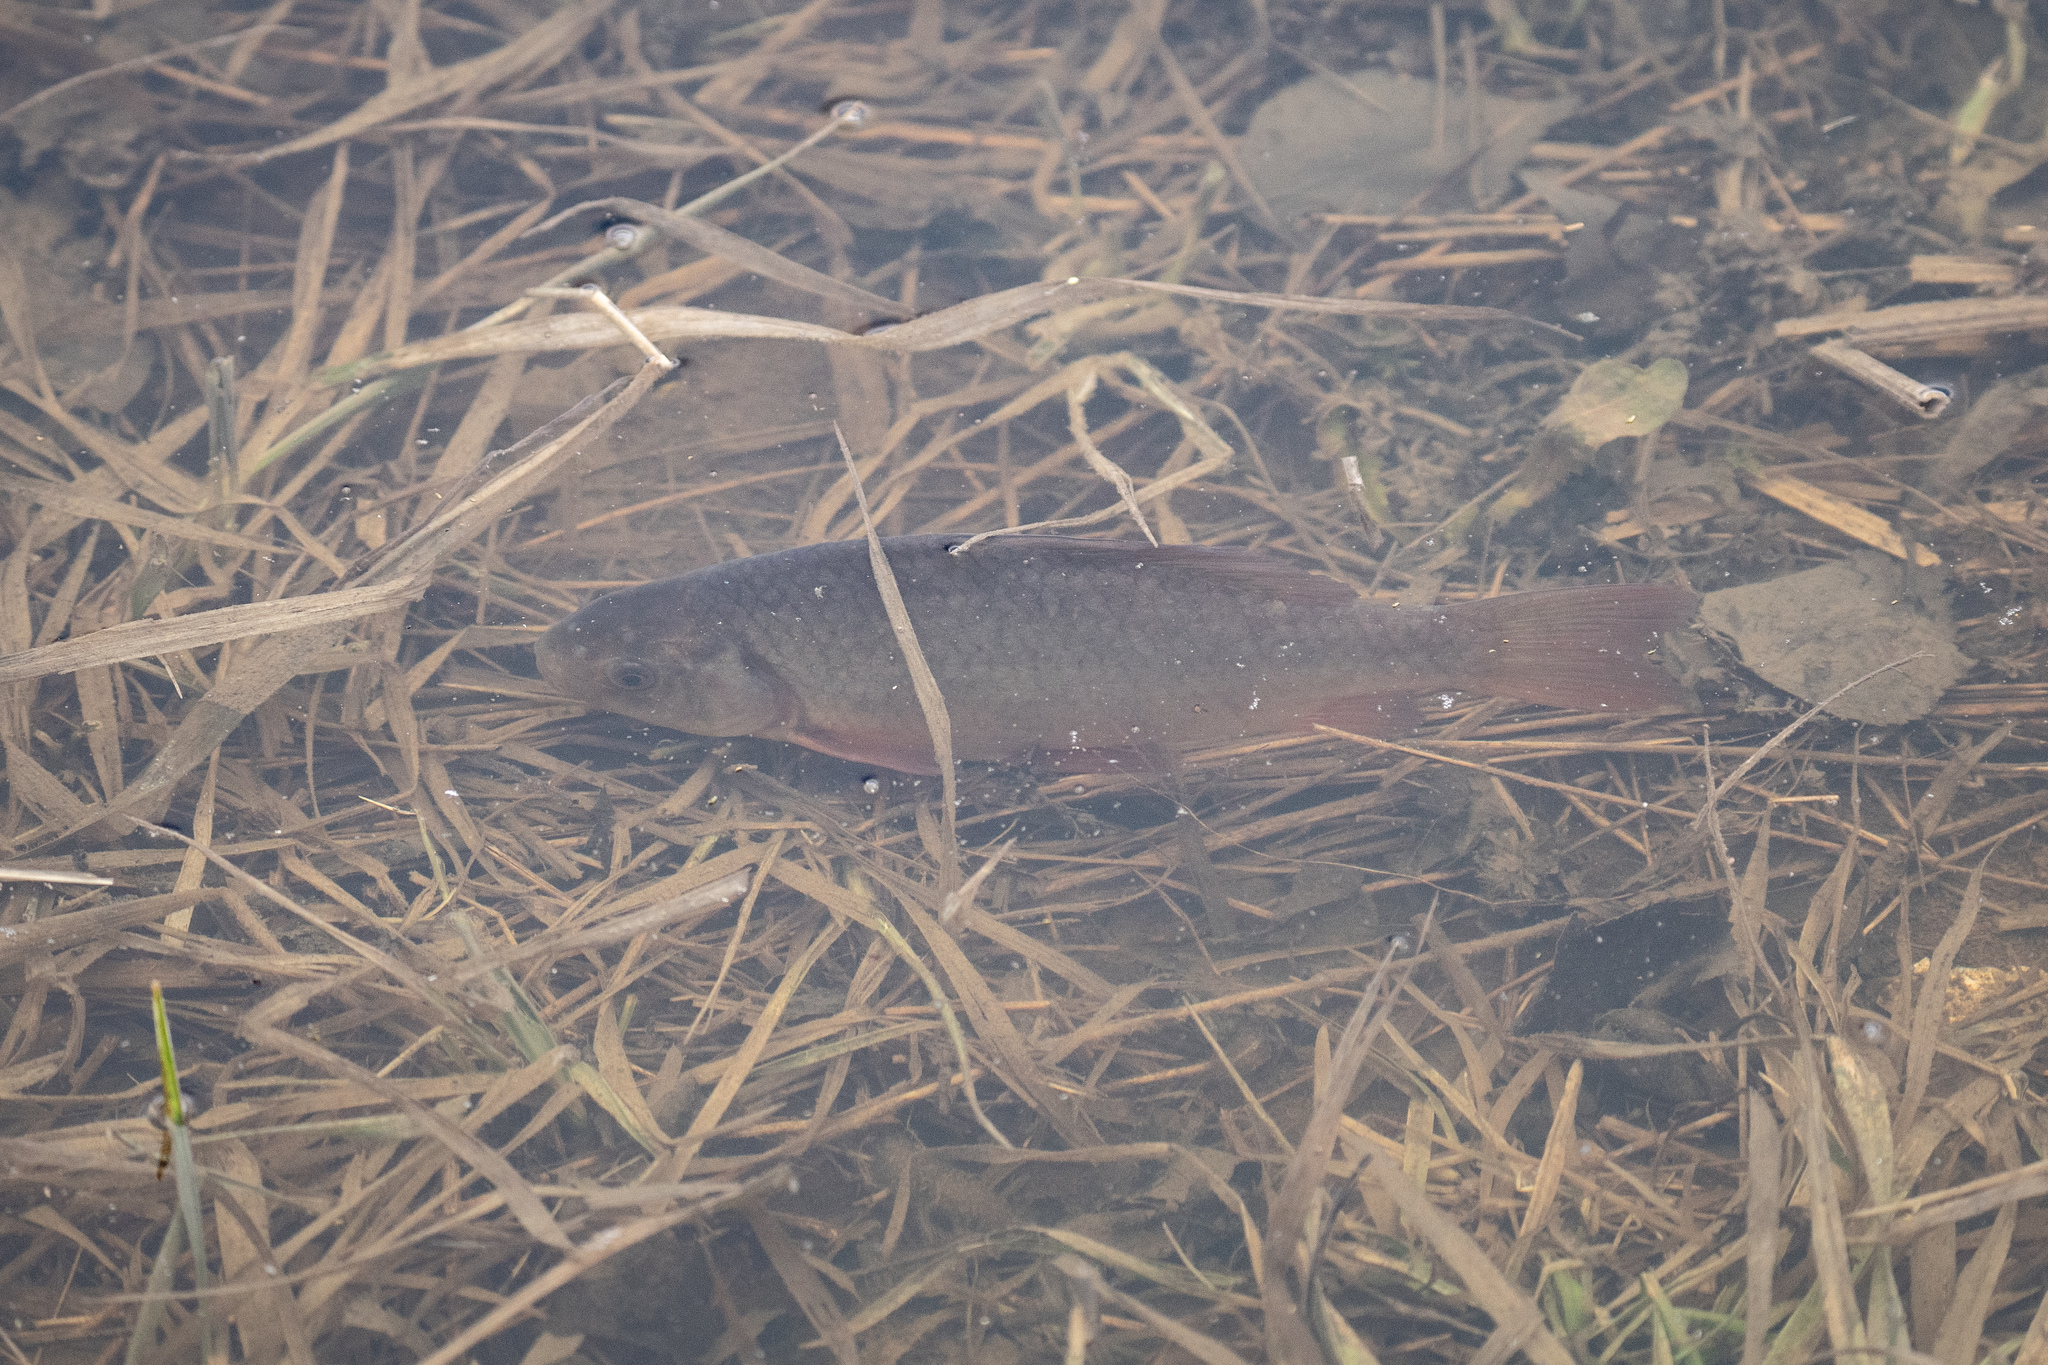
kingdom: Animalia
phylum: Chordata
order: Cypriniformes
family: Cyprinidae
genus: Carassius
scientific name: Carassius gibelio
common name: Prussian carp
